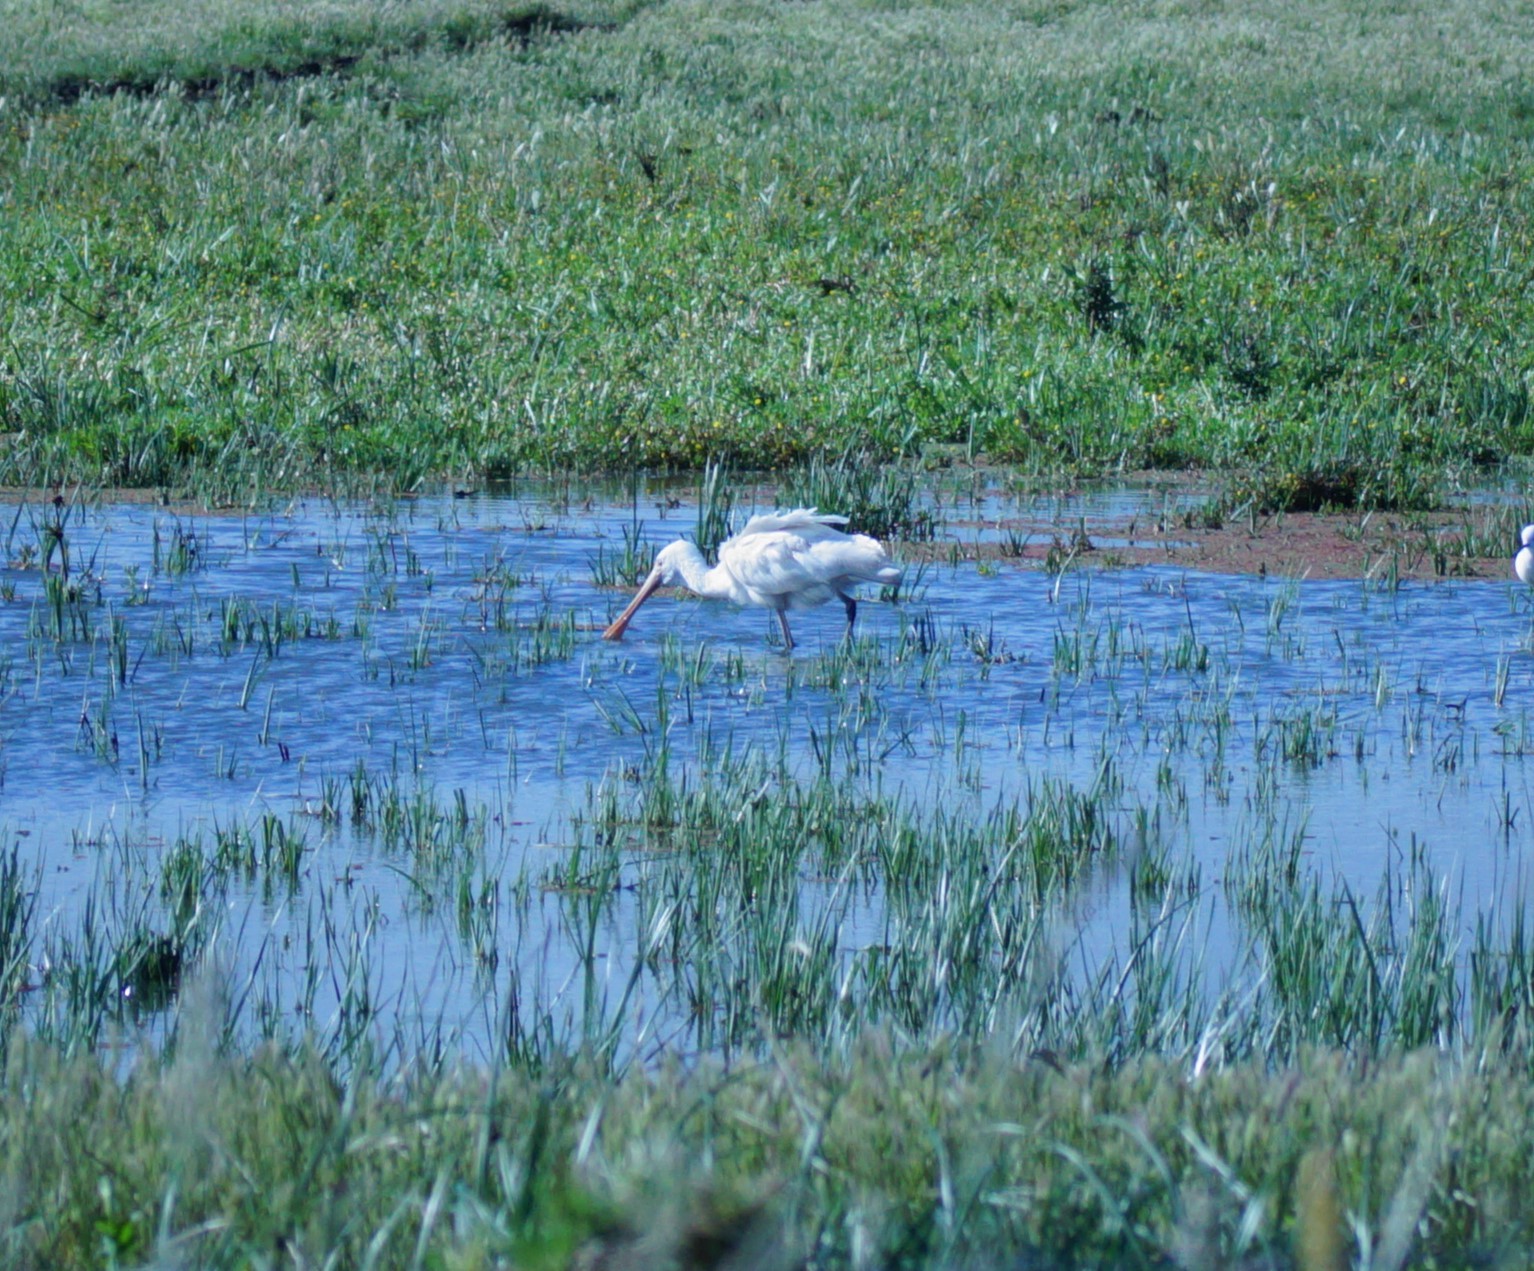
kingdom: Animalia
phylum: Chordata
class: Aves
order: Pelecaniformes
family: Threskiornithidae
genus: Platalea
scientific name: Platalea flavipes
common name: Yellow-billed spoonbill
